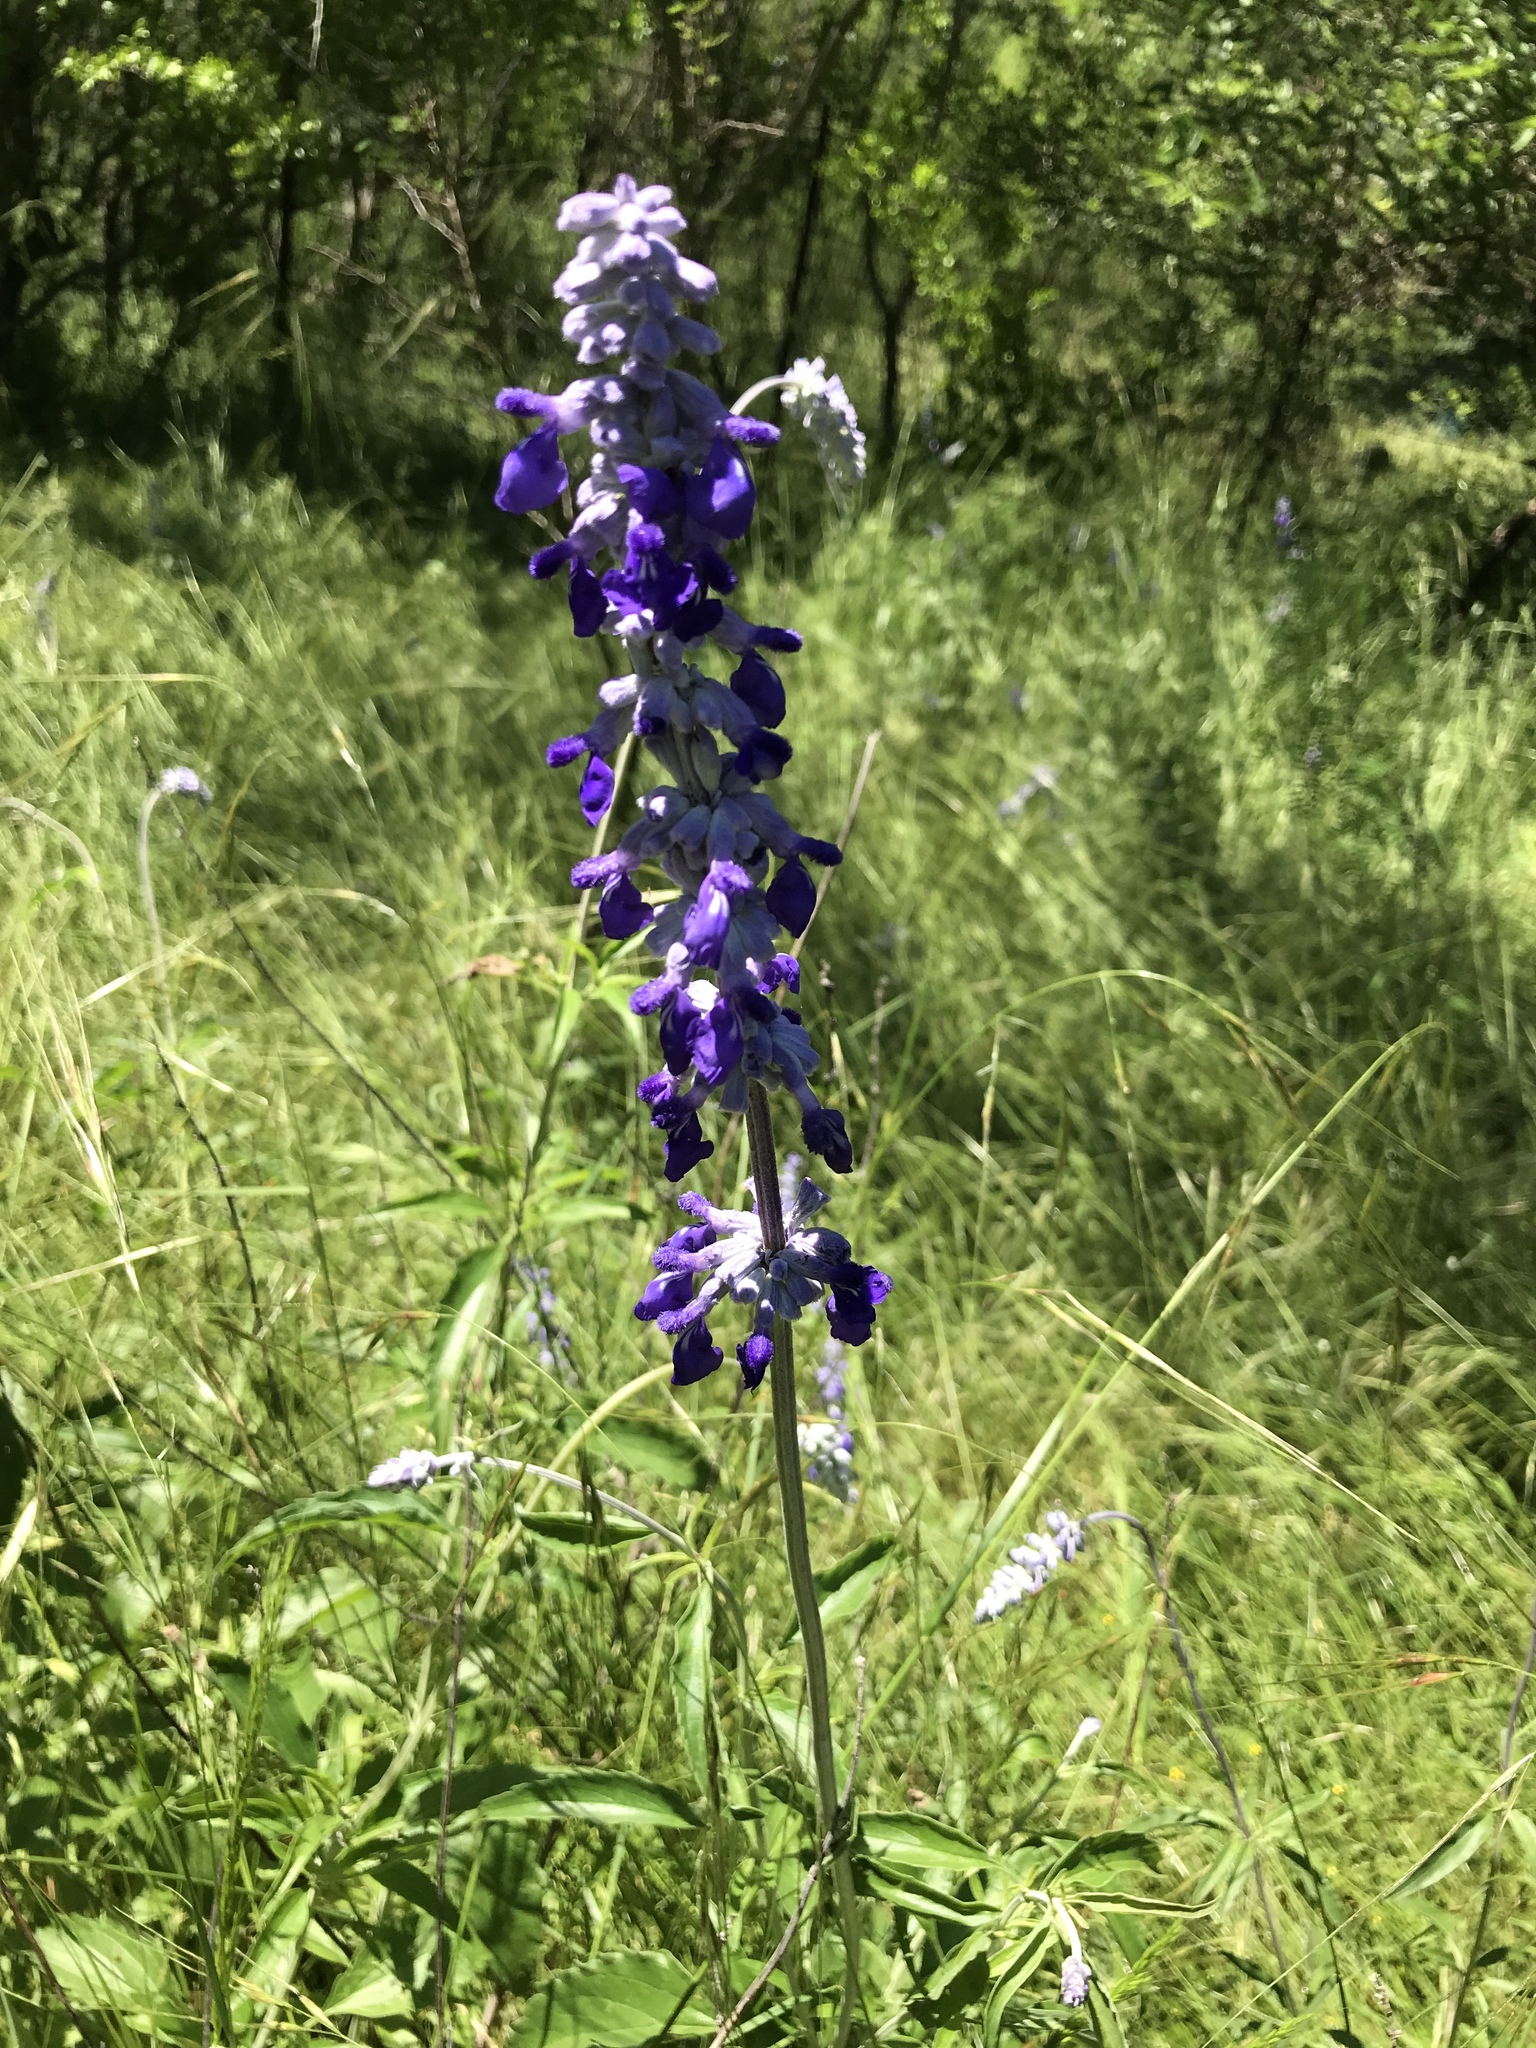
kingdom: Plantae
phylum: Tracheophyta
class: Magnoliopsida
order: Lamiales
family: Lamiaceae
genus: Salvia
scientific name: Salvia farinacea
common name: Mealy sage
